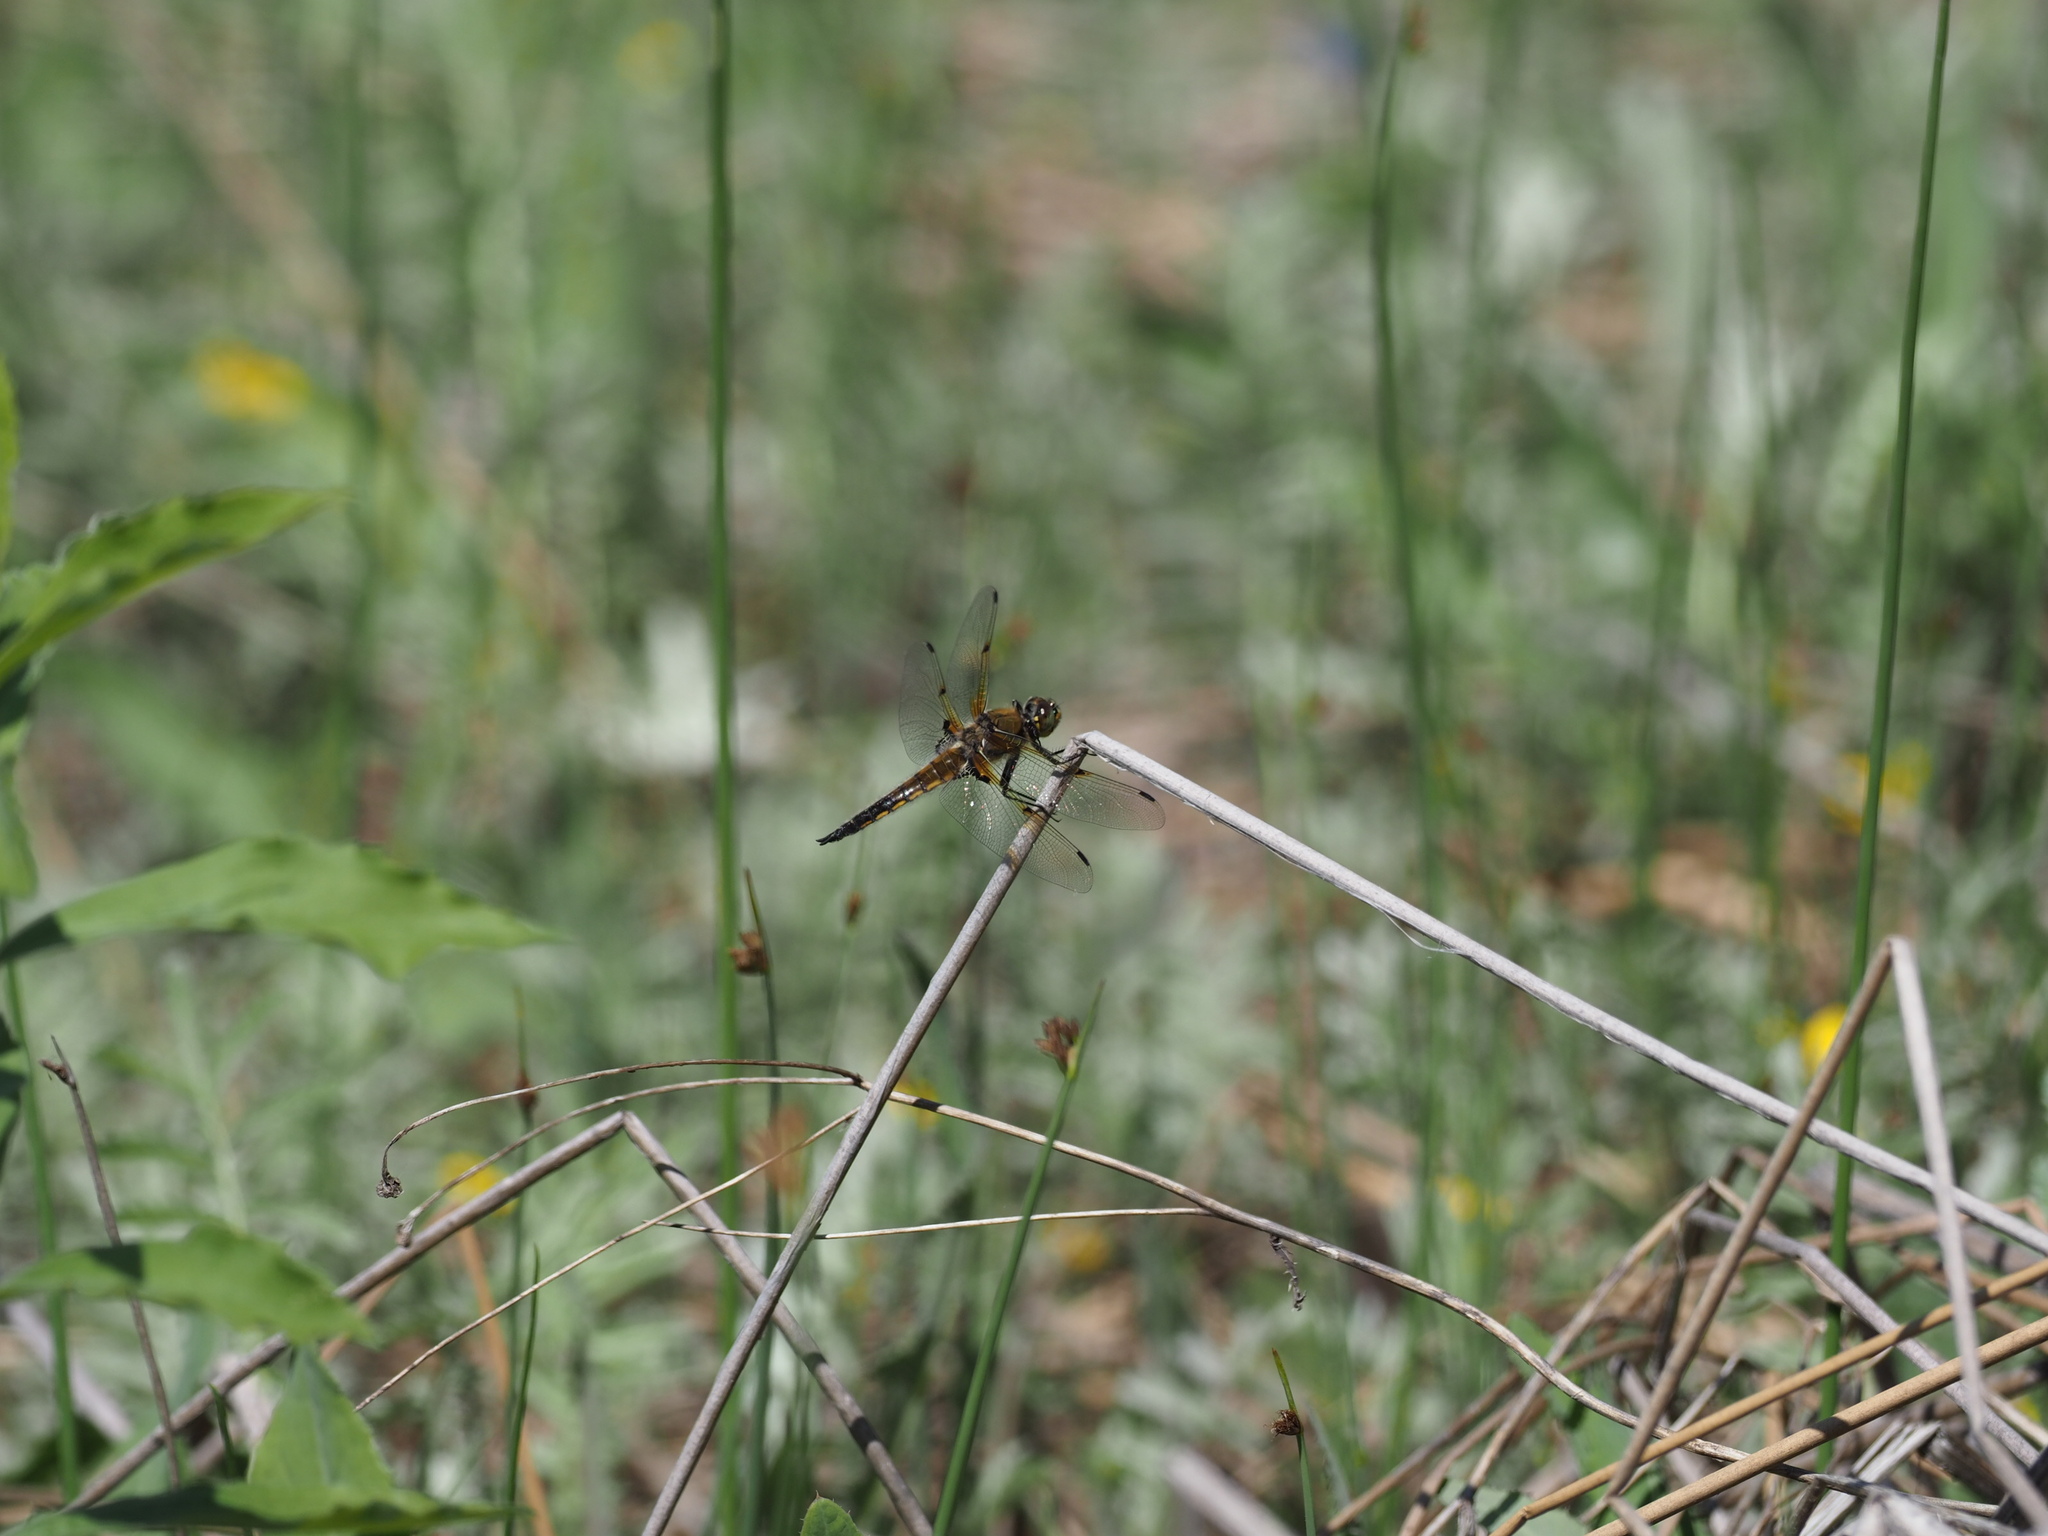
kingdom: Animalia
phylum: Arthropoda
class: Insecta
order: Odonata
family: Libellulidae
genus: Libellula
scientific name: Libellula quadrimaculata
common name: Four-spotted chaser
